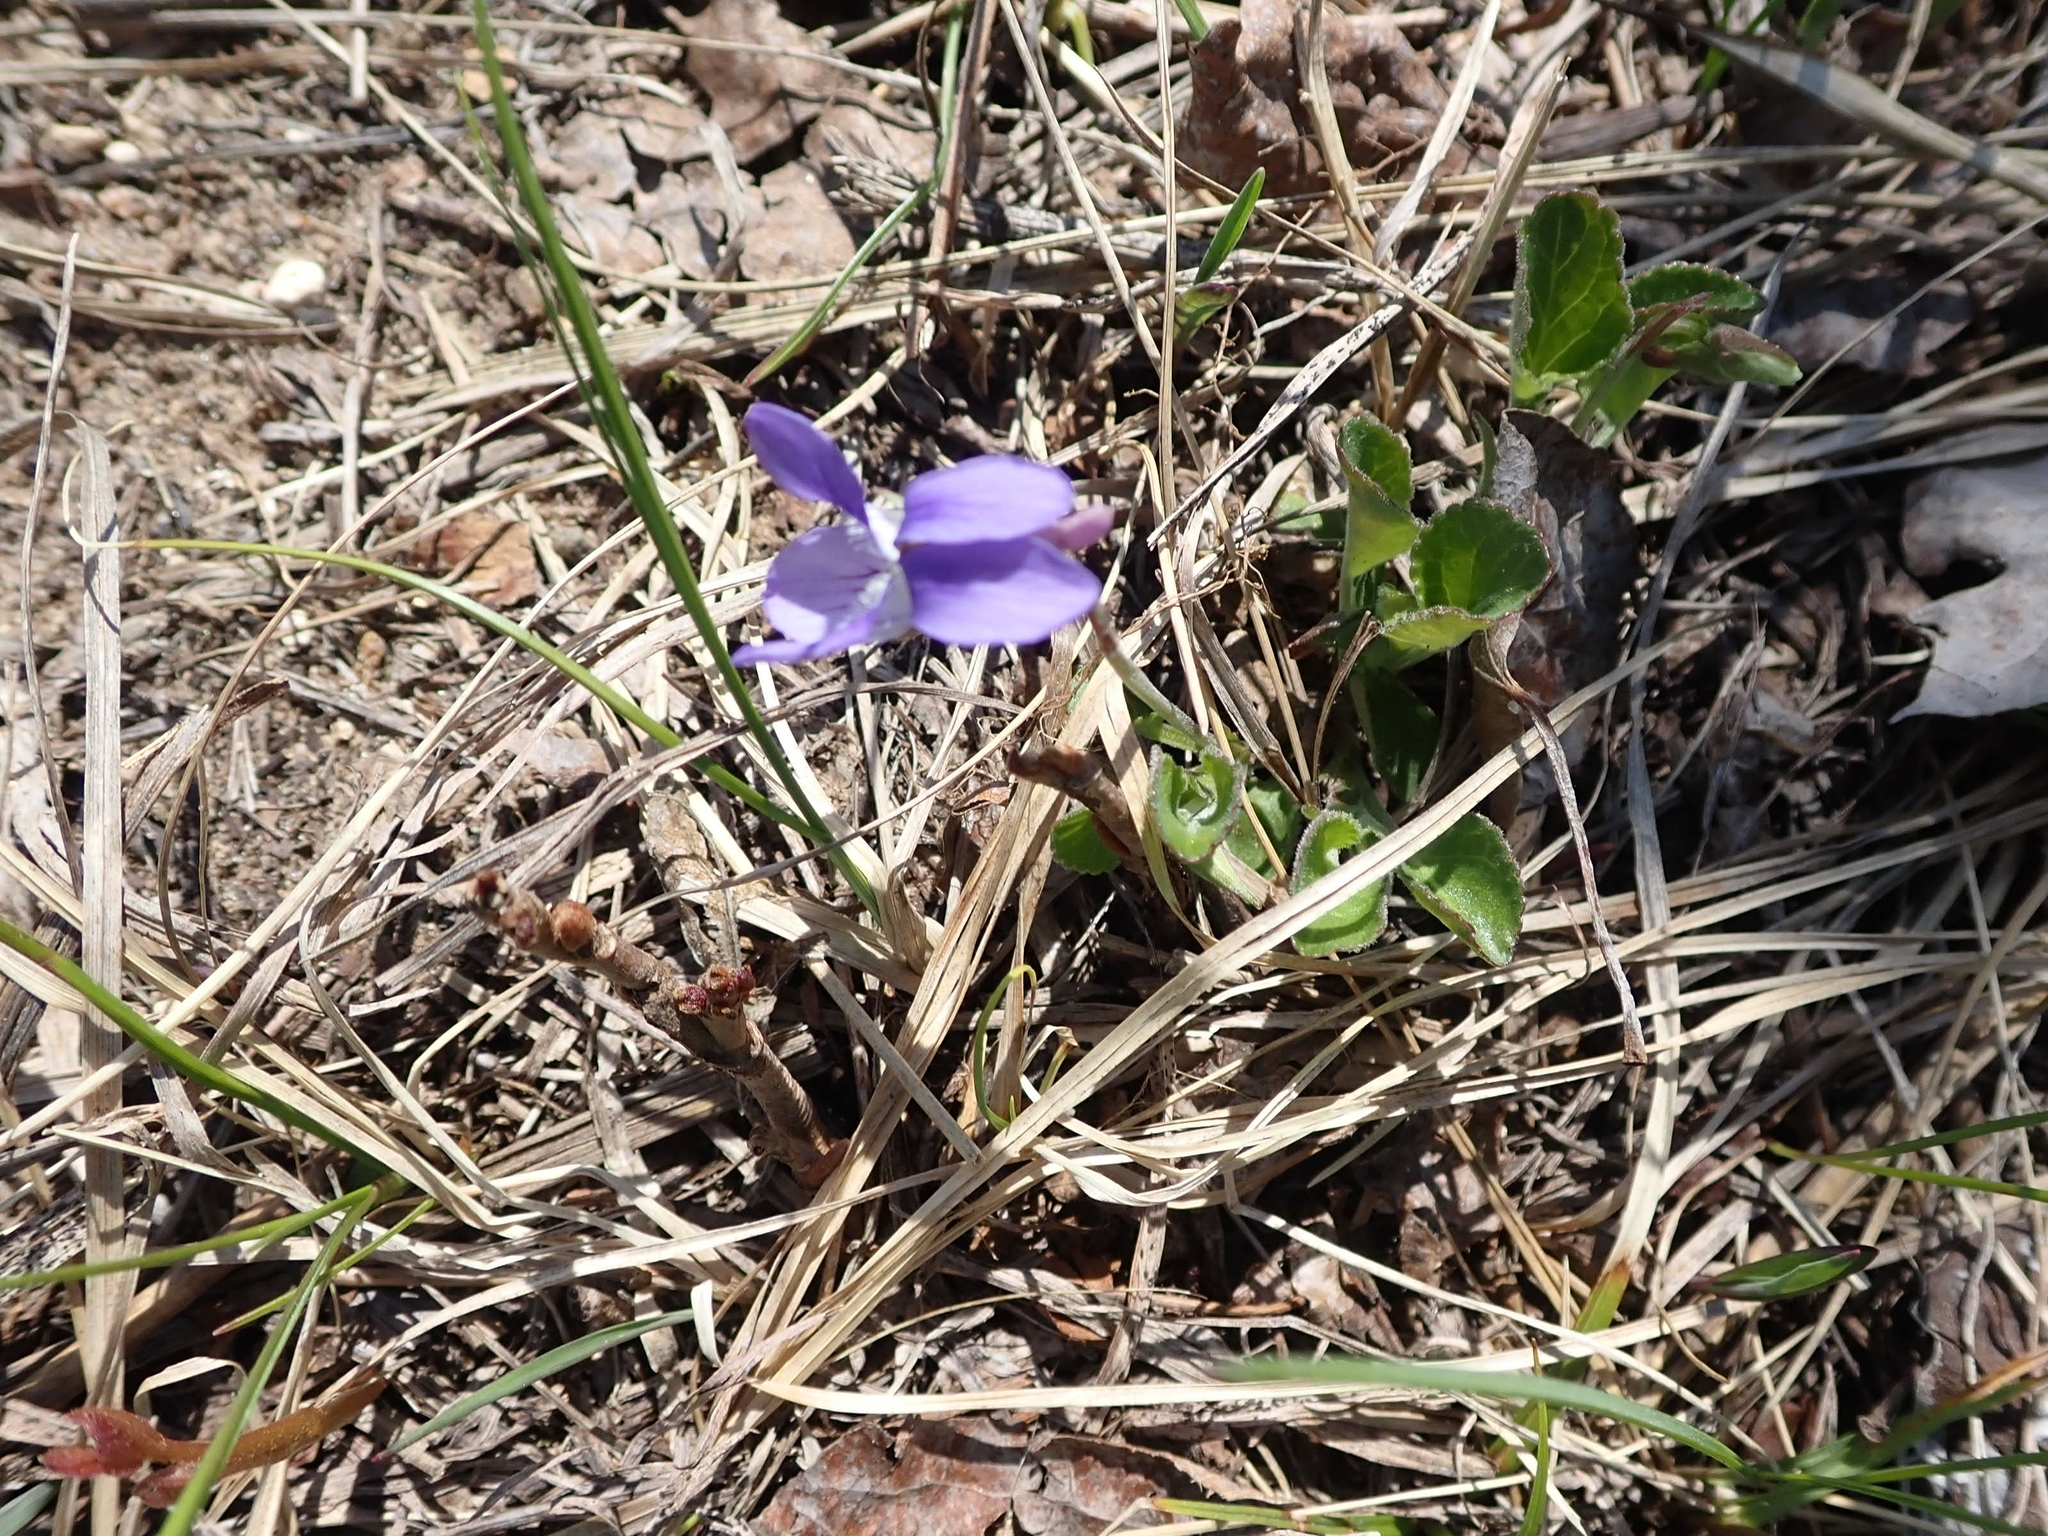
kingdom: Plantae
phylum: Tracheophyta
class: Magnoliopsida
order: Malpighiales
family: Violaceae
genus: Viola
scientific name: Viola adunca
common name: Sand violet
